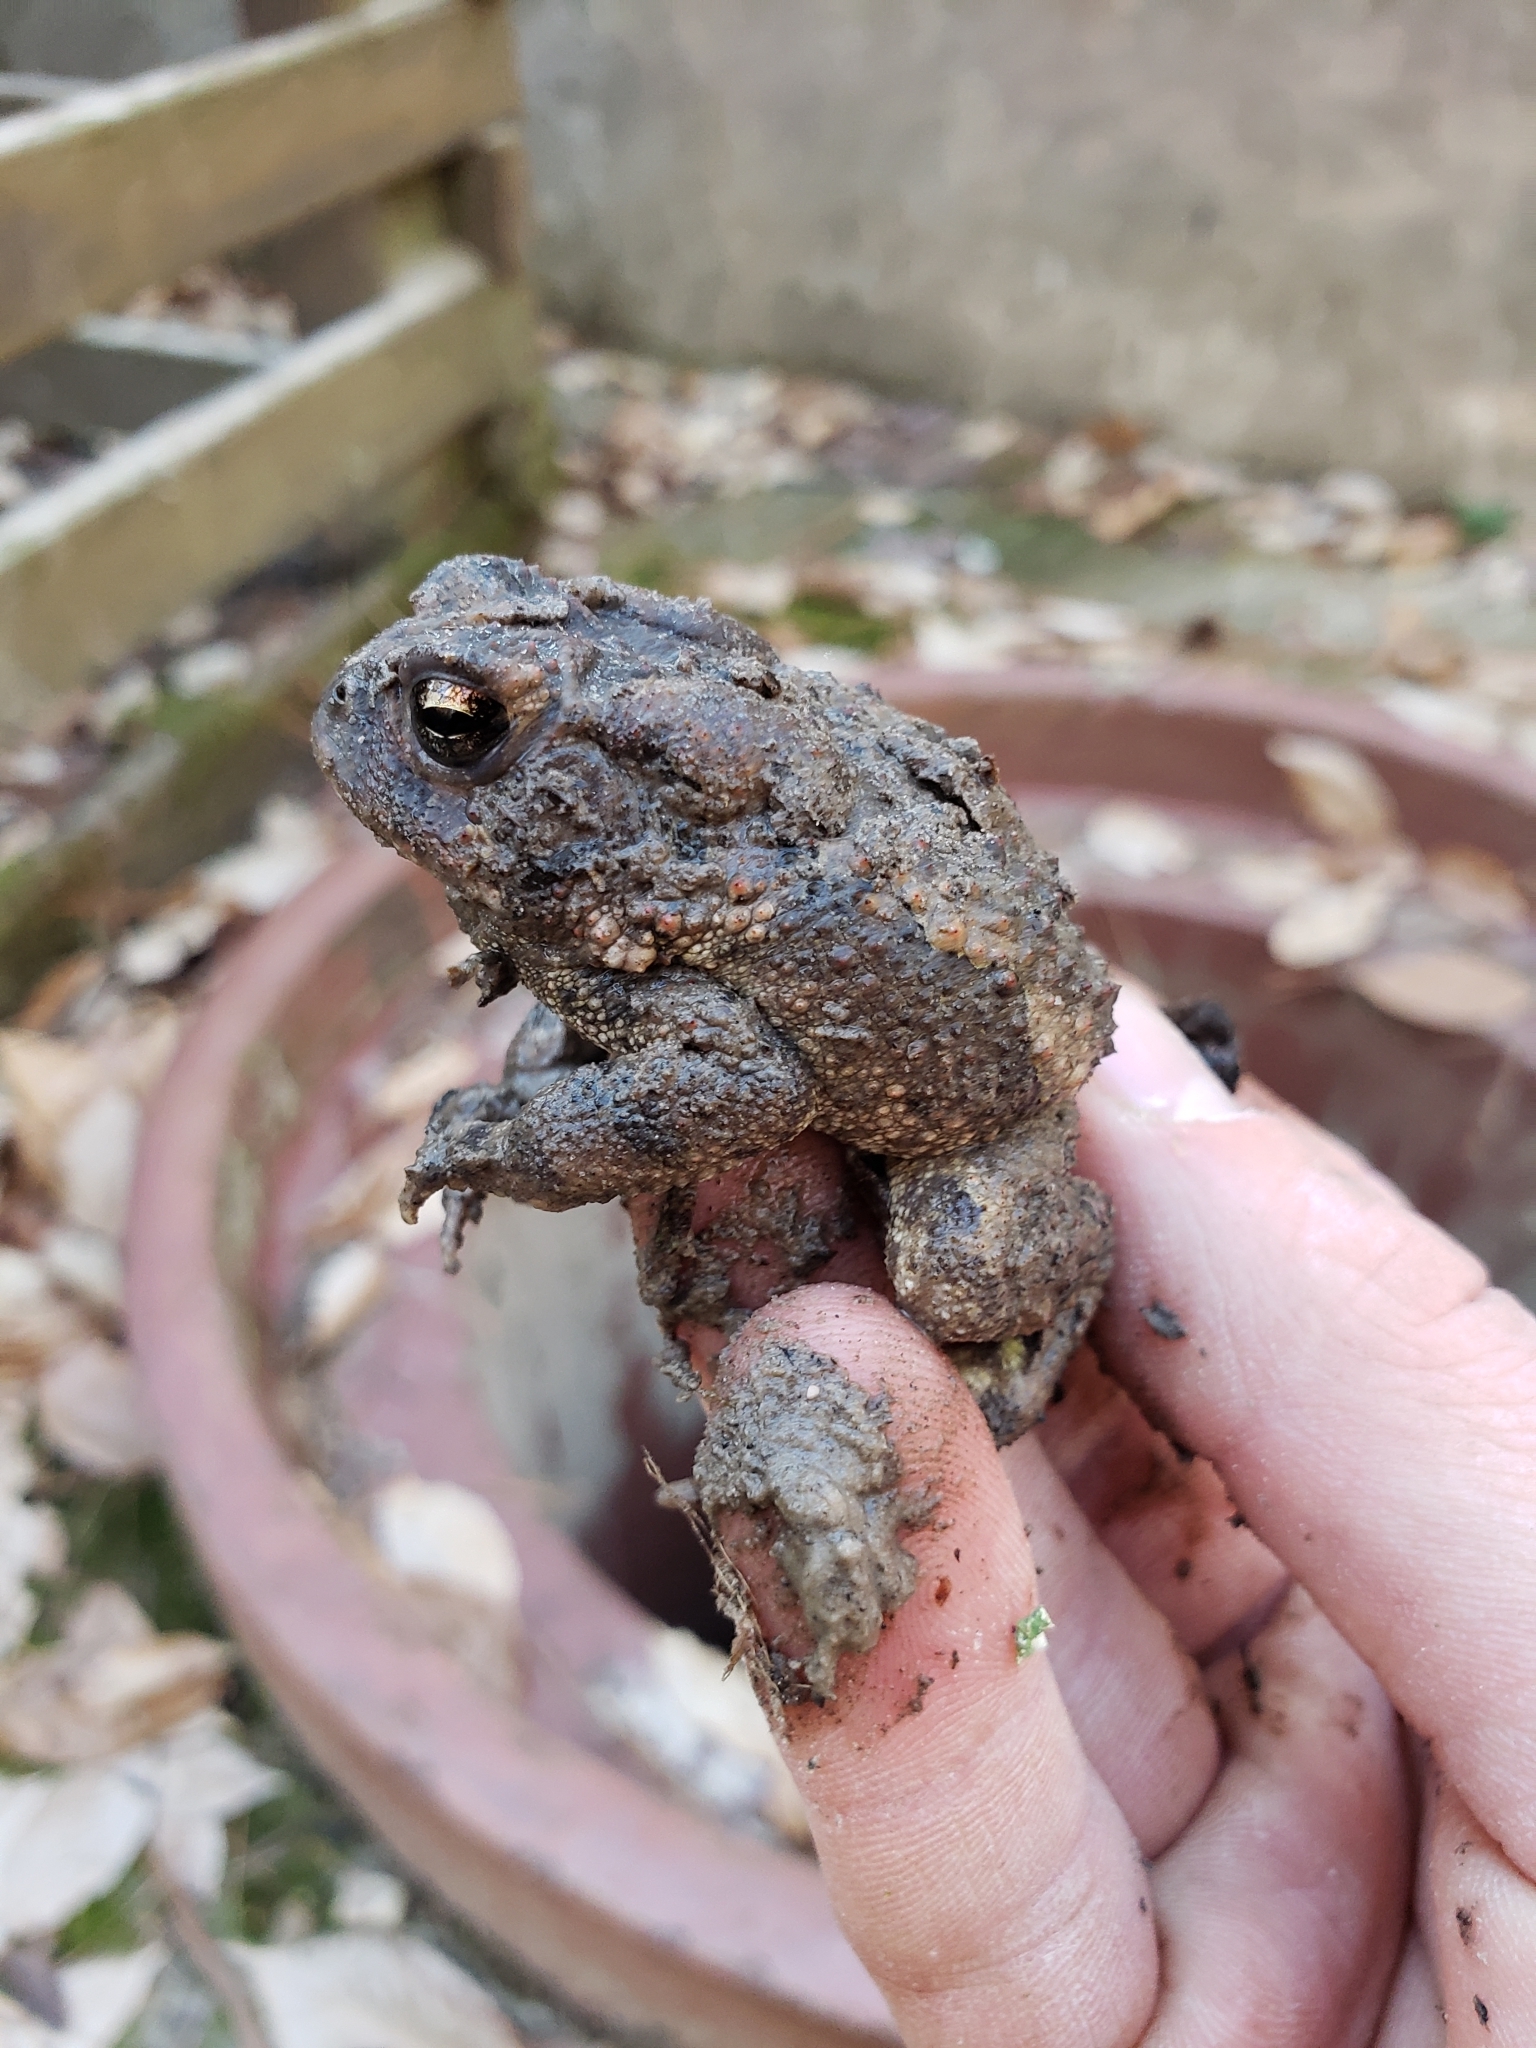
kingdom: Animalia
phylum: Chordata
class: Amphibia
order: Anura
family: Bufonidae
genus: Anaxyrus
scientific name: Anaxyrus fowleri
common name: Fowler's toad
